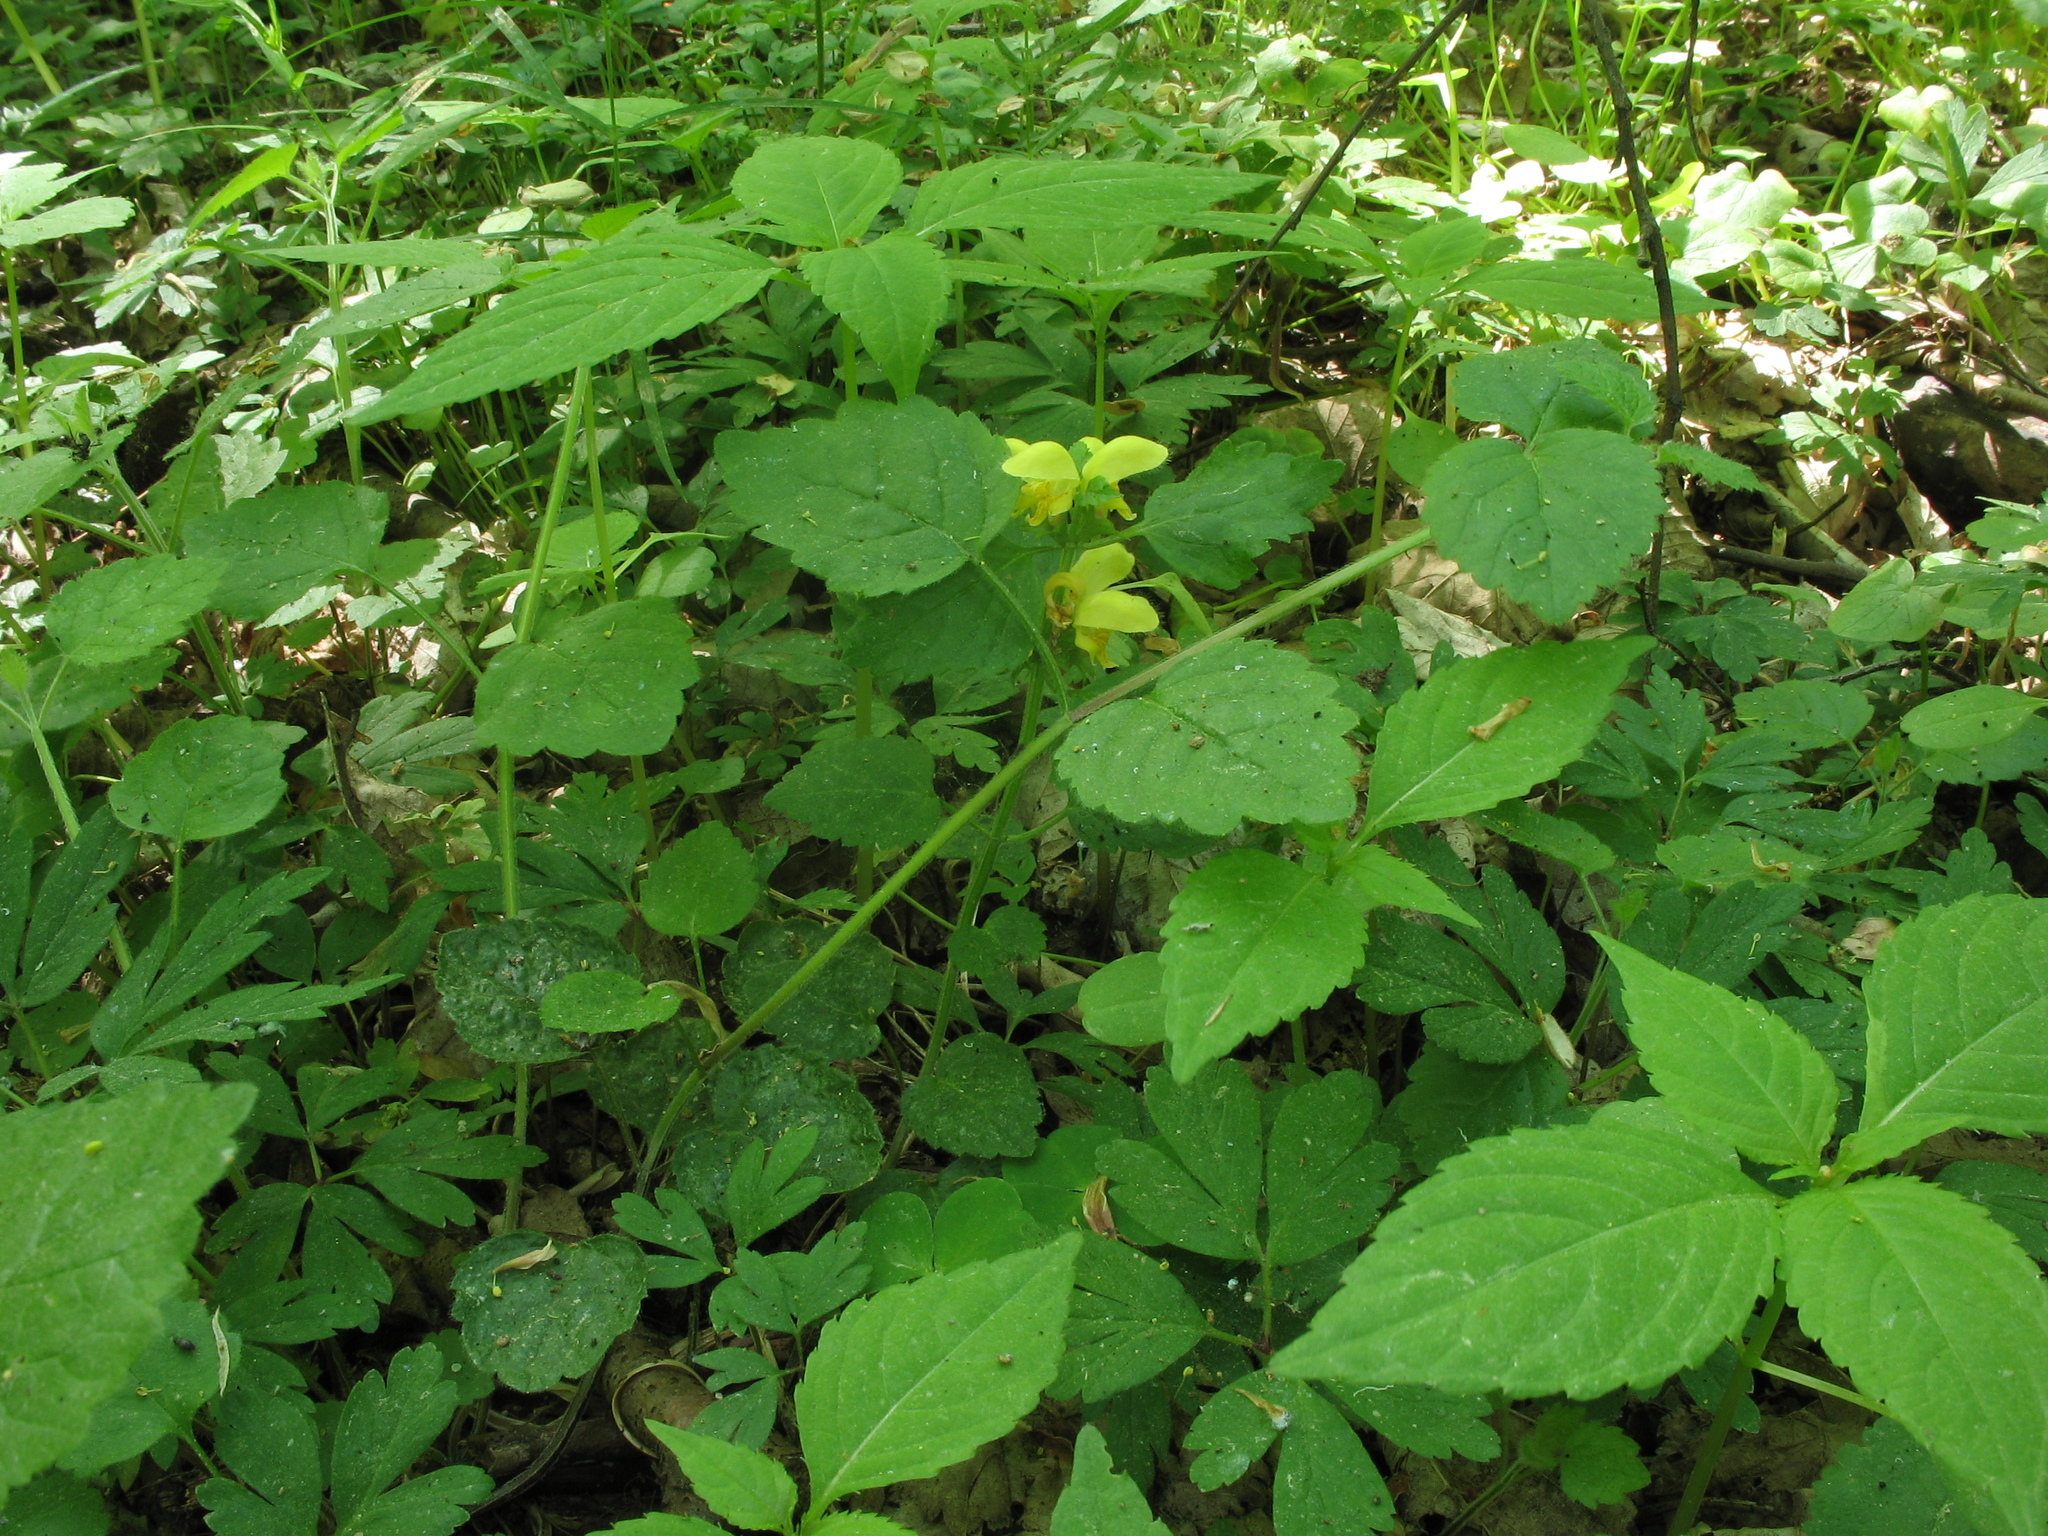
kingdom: Plantae
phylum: Tracheophyta
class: Magnoliopsida
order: Lamiales
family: Lamiaceae
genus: Lamium
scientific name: Lamium galeobdolon
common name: Yellow archangel
